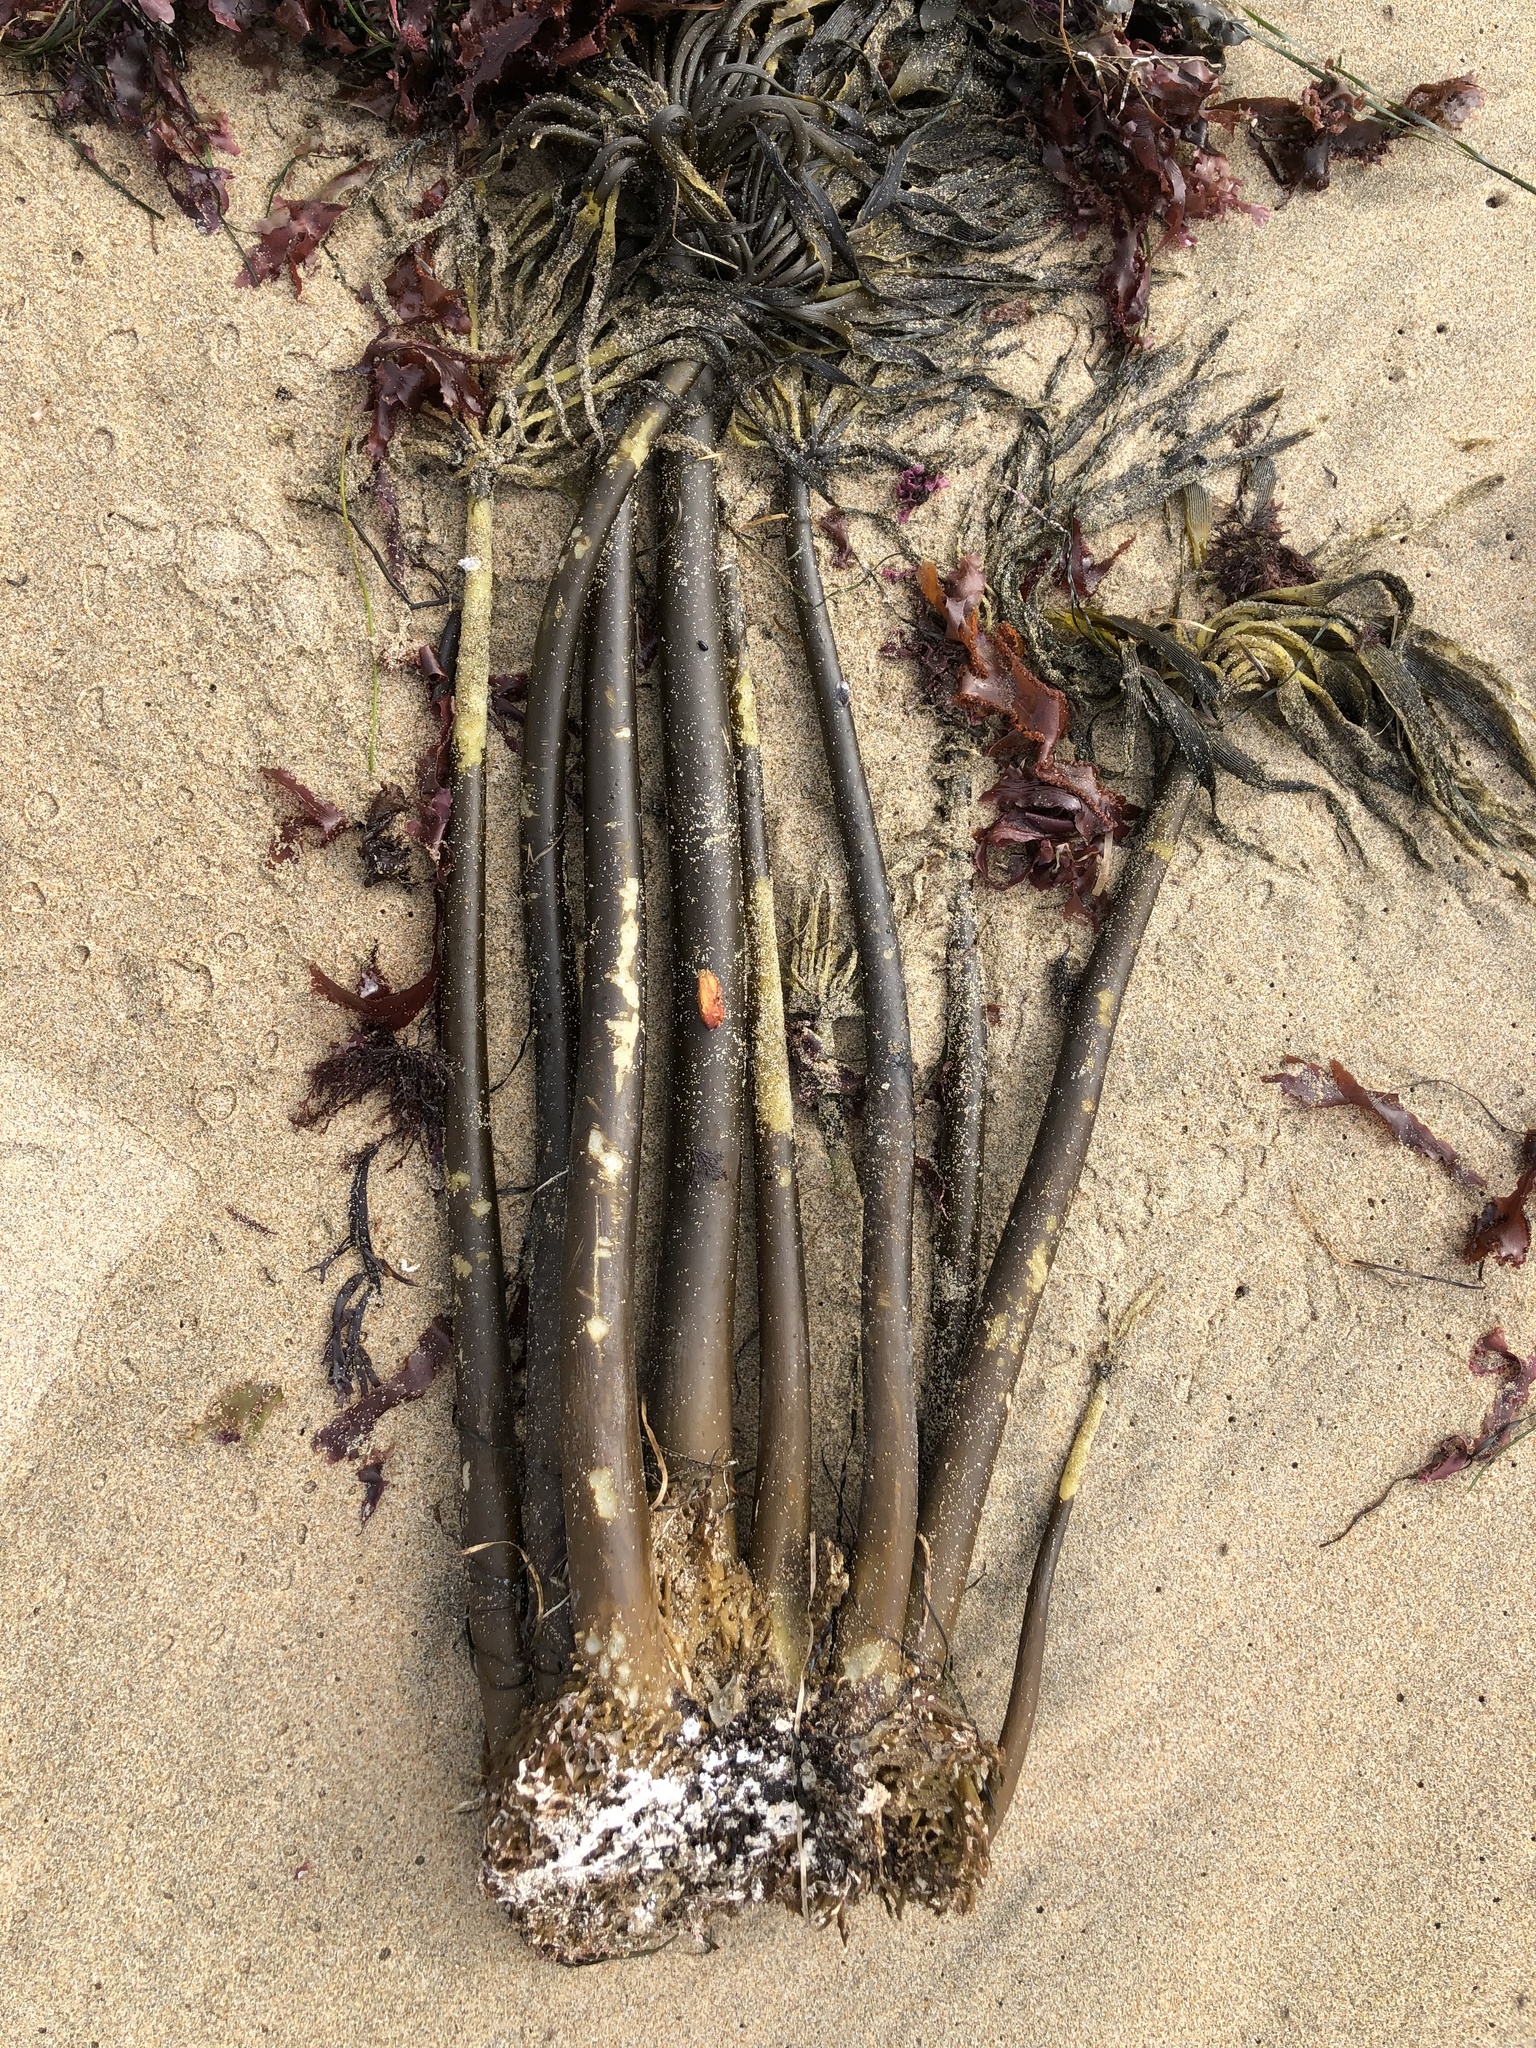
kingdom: Chromista
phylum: Ochrophyta
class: Phaeophyceae
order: Laminariales
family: Laminariaceae
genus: Postelsia
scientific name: Postelsia palmiformis
